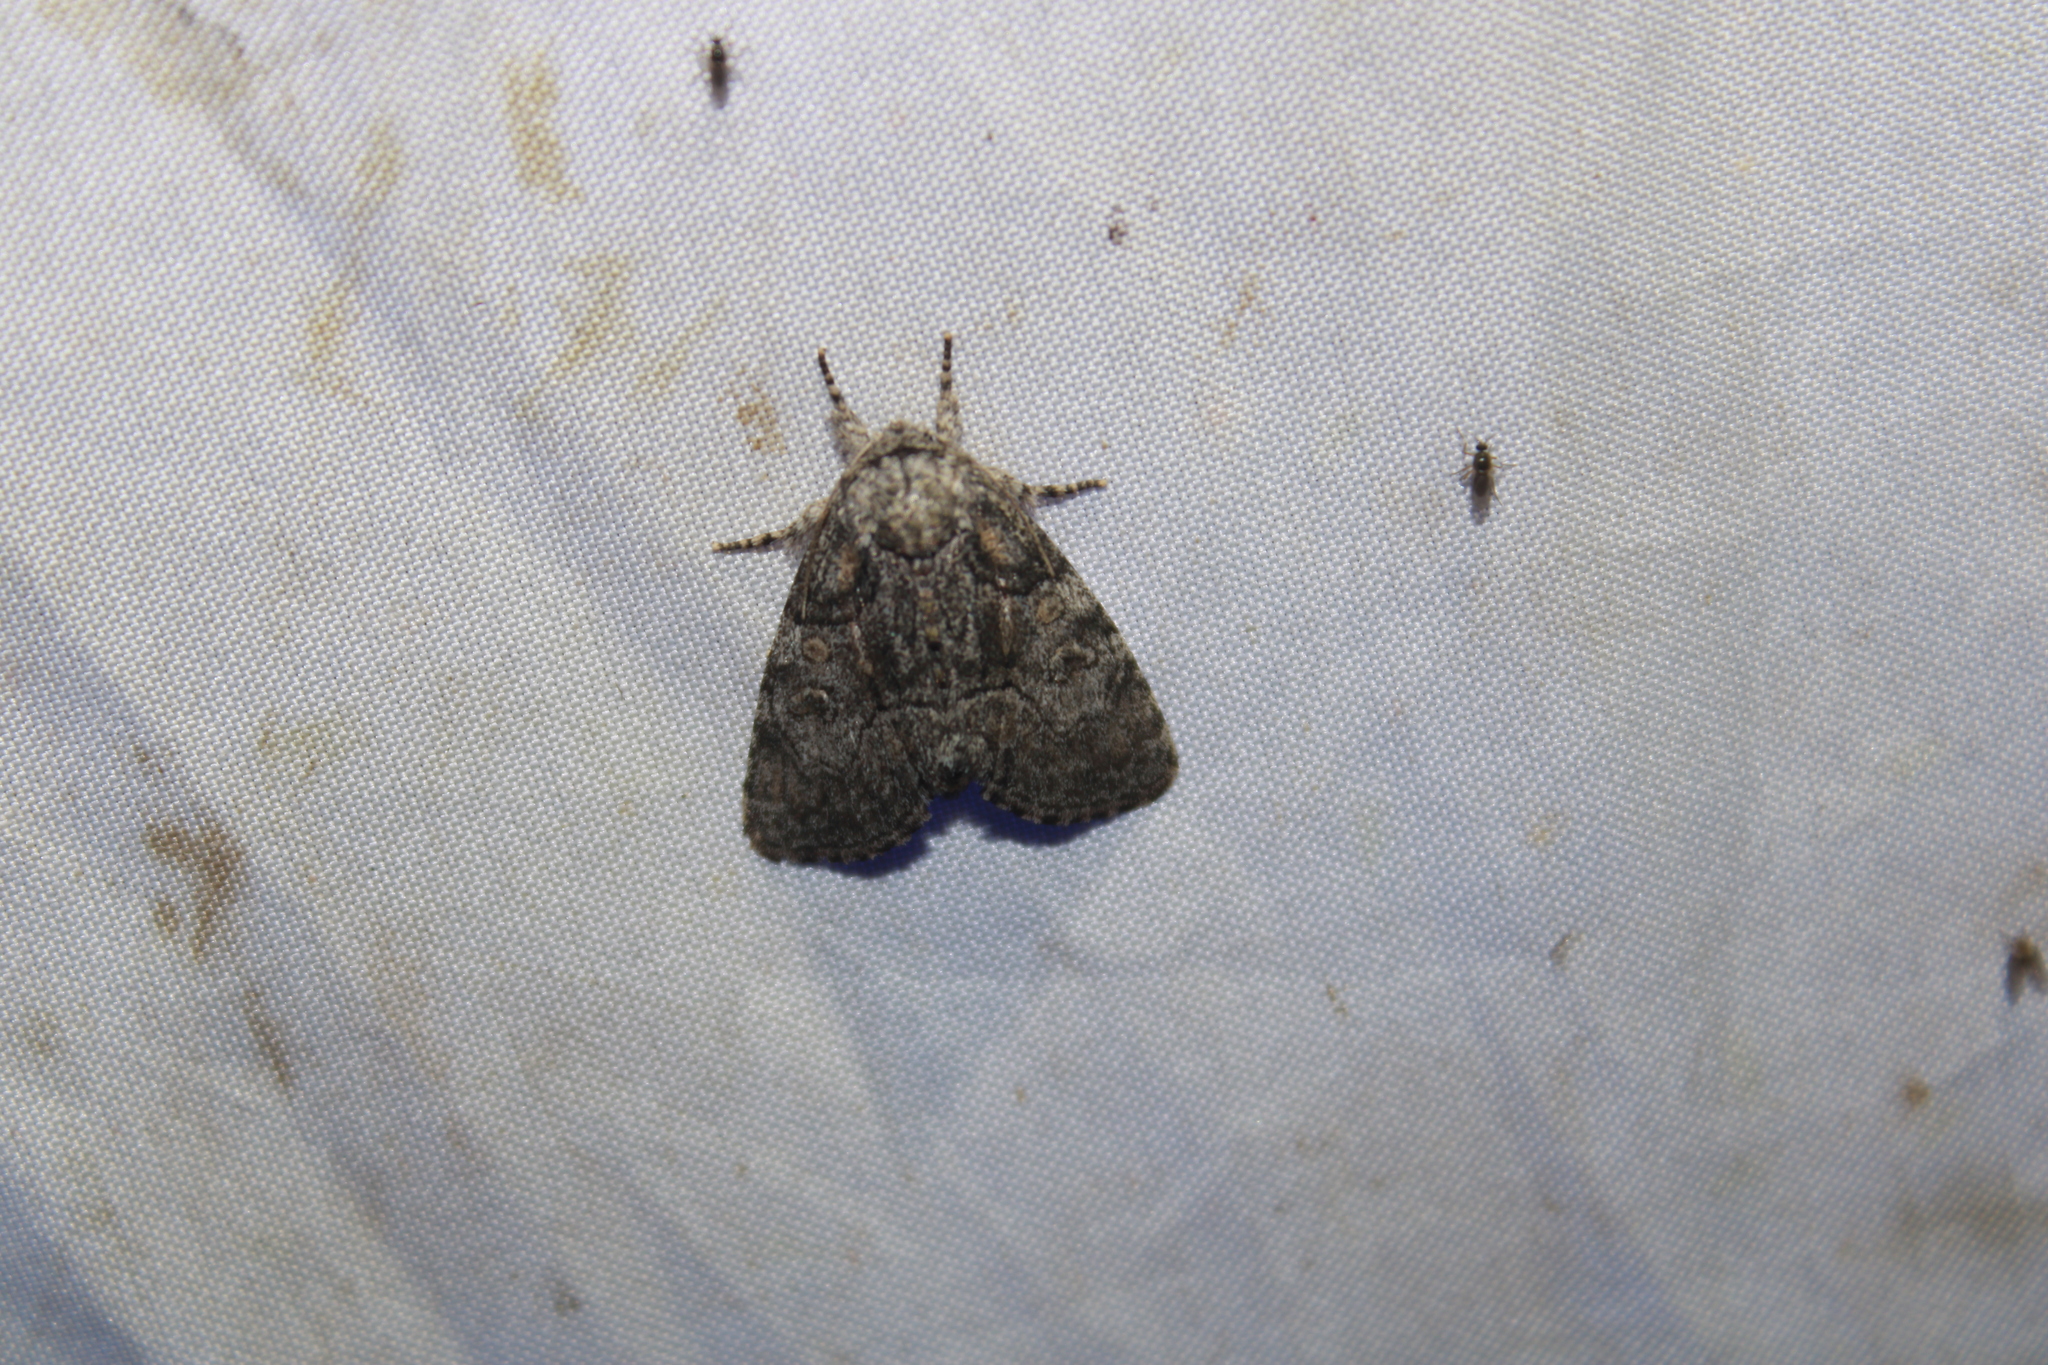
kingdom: Animalia
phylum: Arthropoda
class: Insecta
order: Lepidoptera
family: Noctuidae
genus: Raphia
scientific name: Raphia frater
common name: Brother
